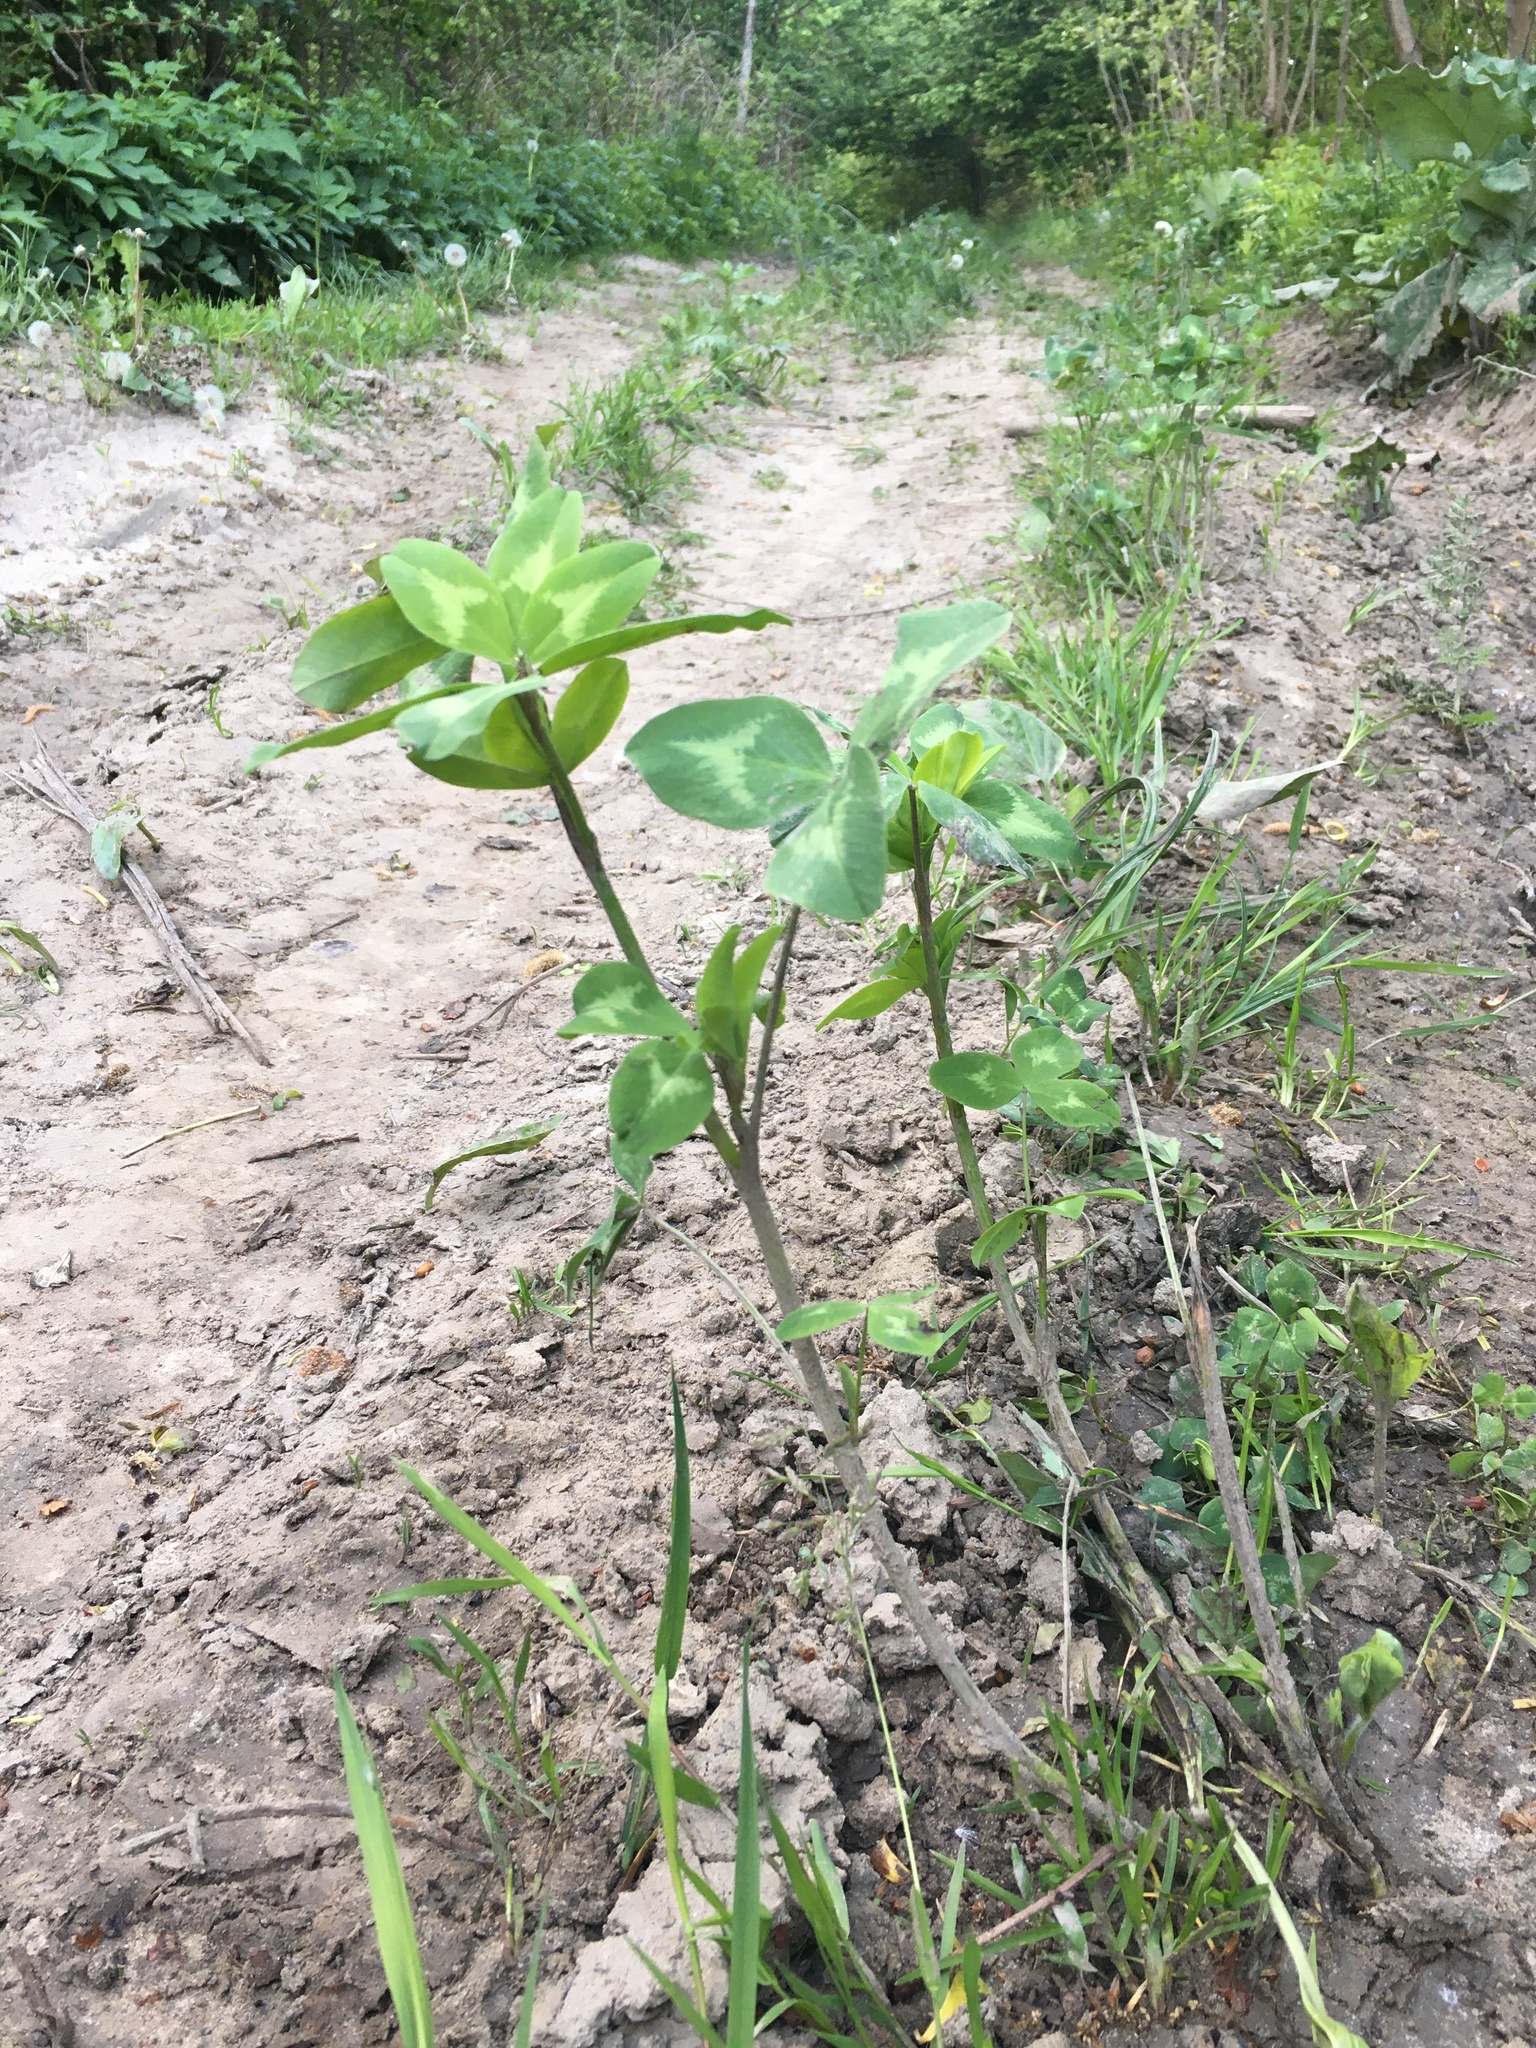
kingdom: Plantae
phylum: Tracheophyta
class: Magnoliopsida
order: Fabales
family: Fabaceae
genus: Trifolium
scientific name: Trifolium pratense
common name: Red clover
